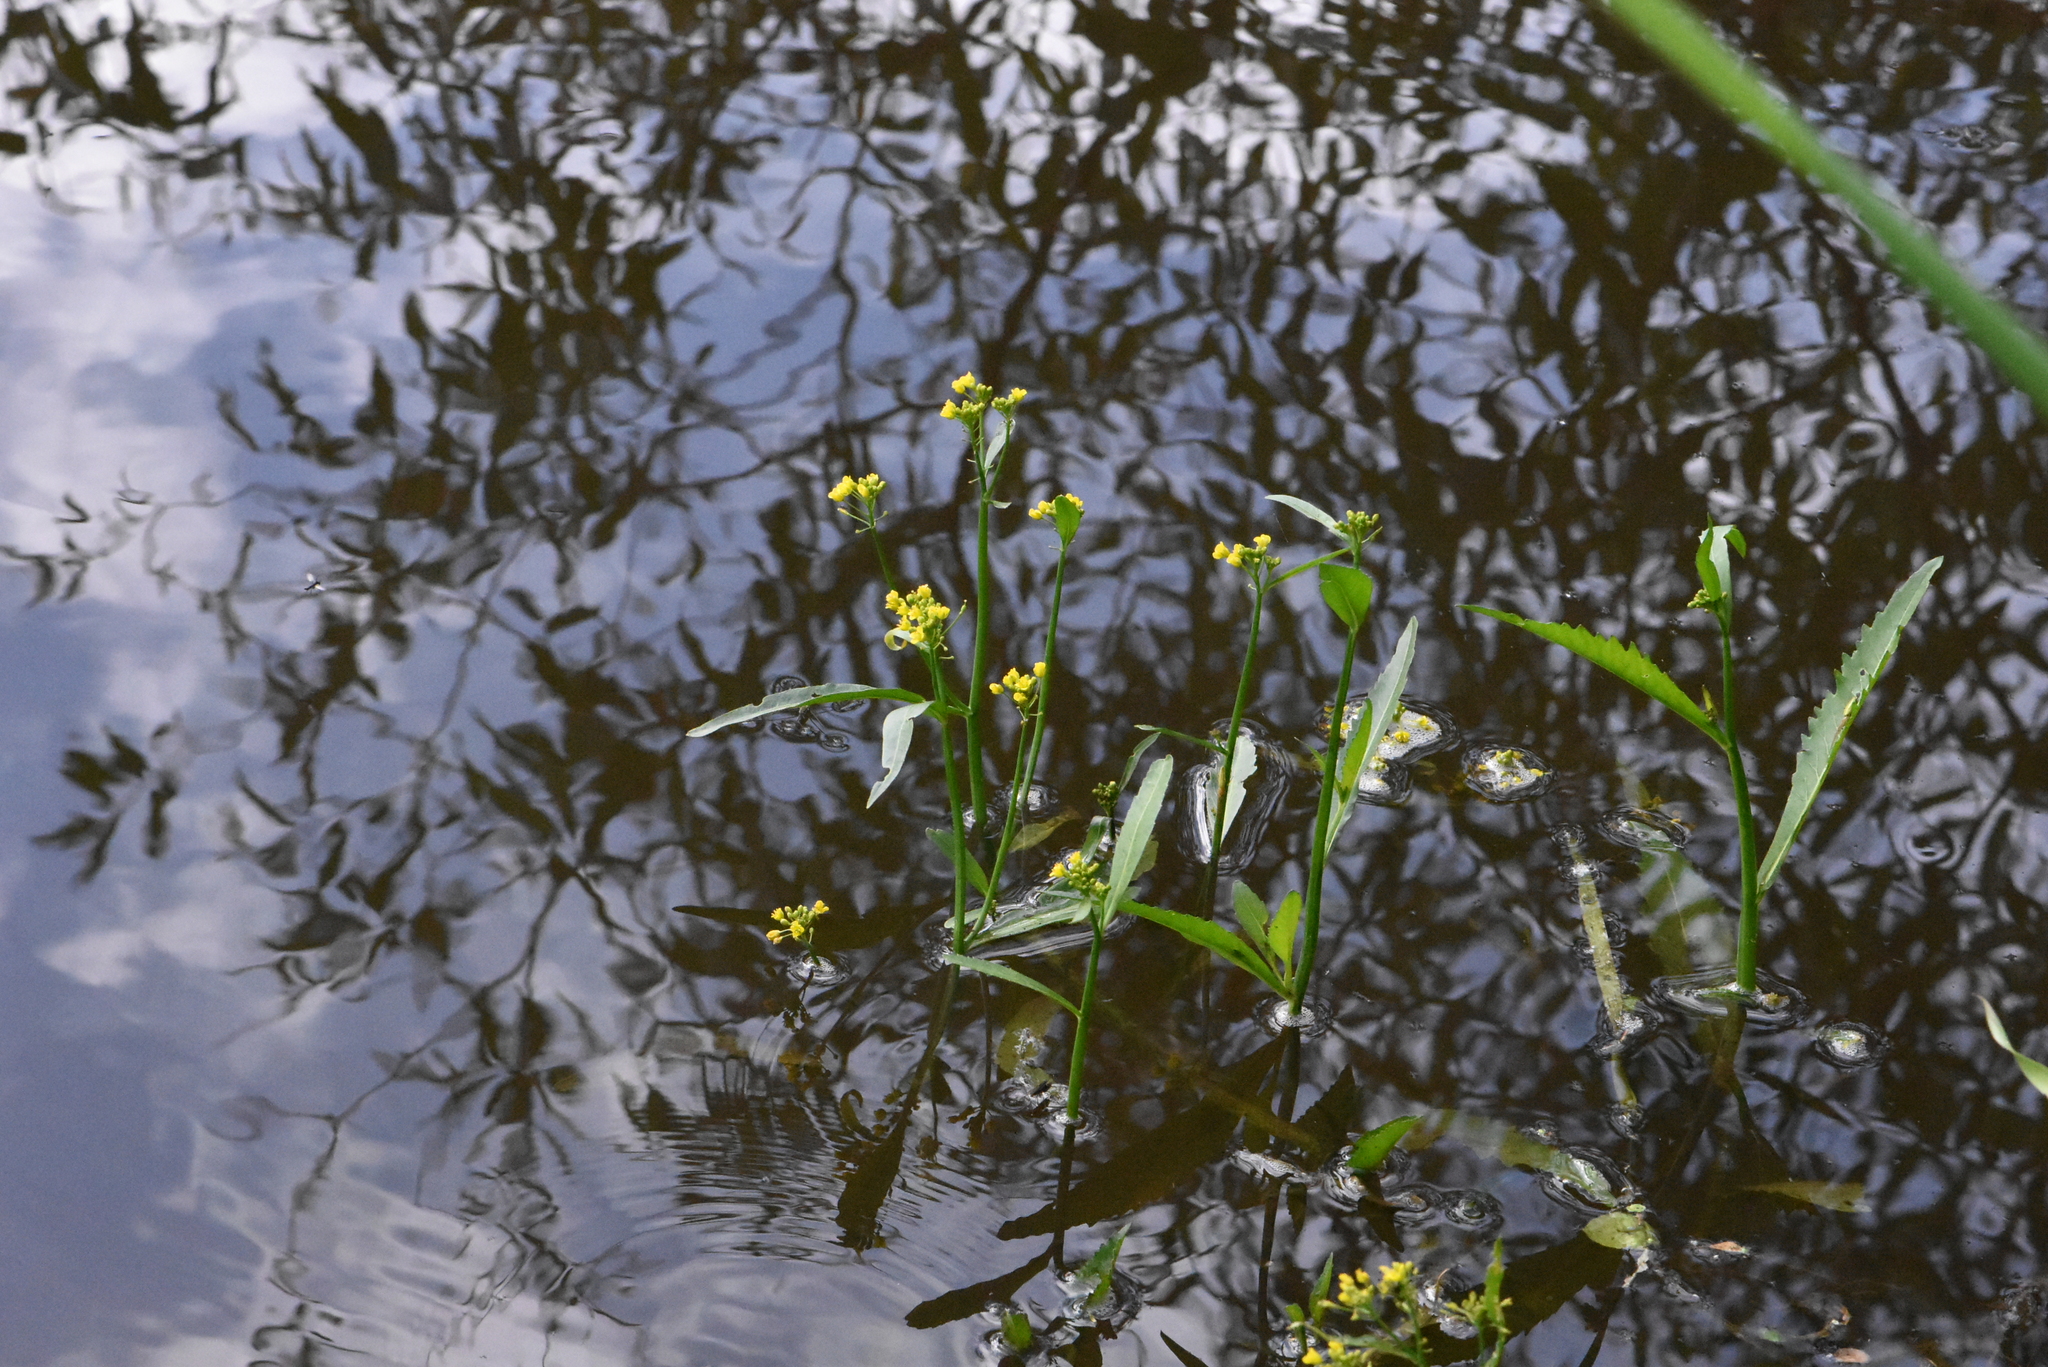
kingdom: Plantae
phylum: Tracheophyta
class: Magnoliopsida
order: Brassicales
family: Brassicaceae
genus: Rorippa
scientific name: Rorippa amphibia
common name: Great yellow-cress
